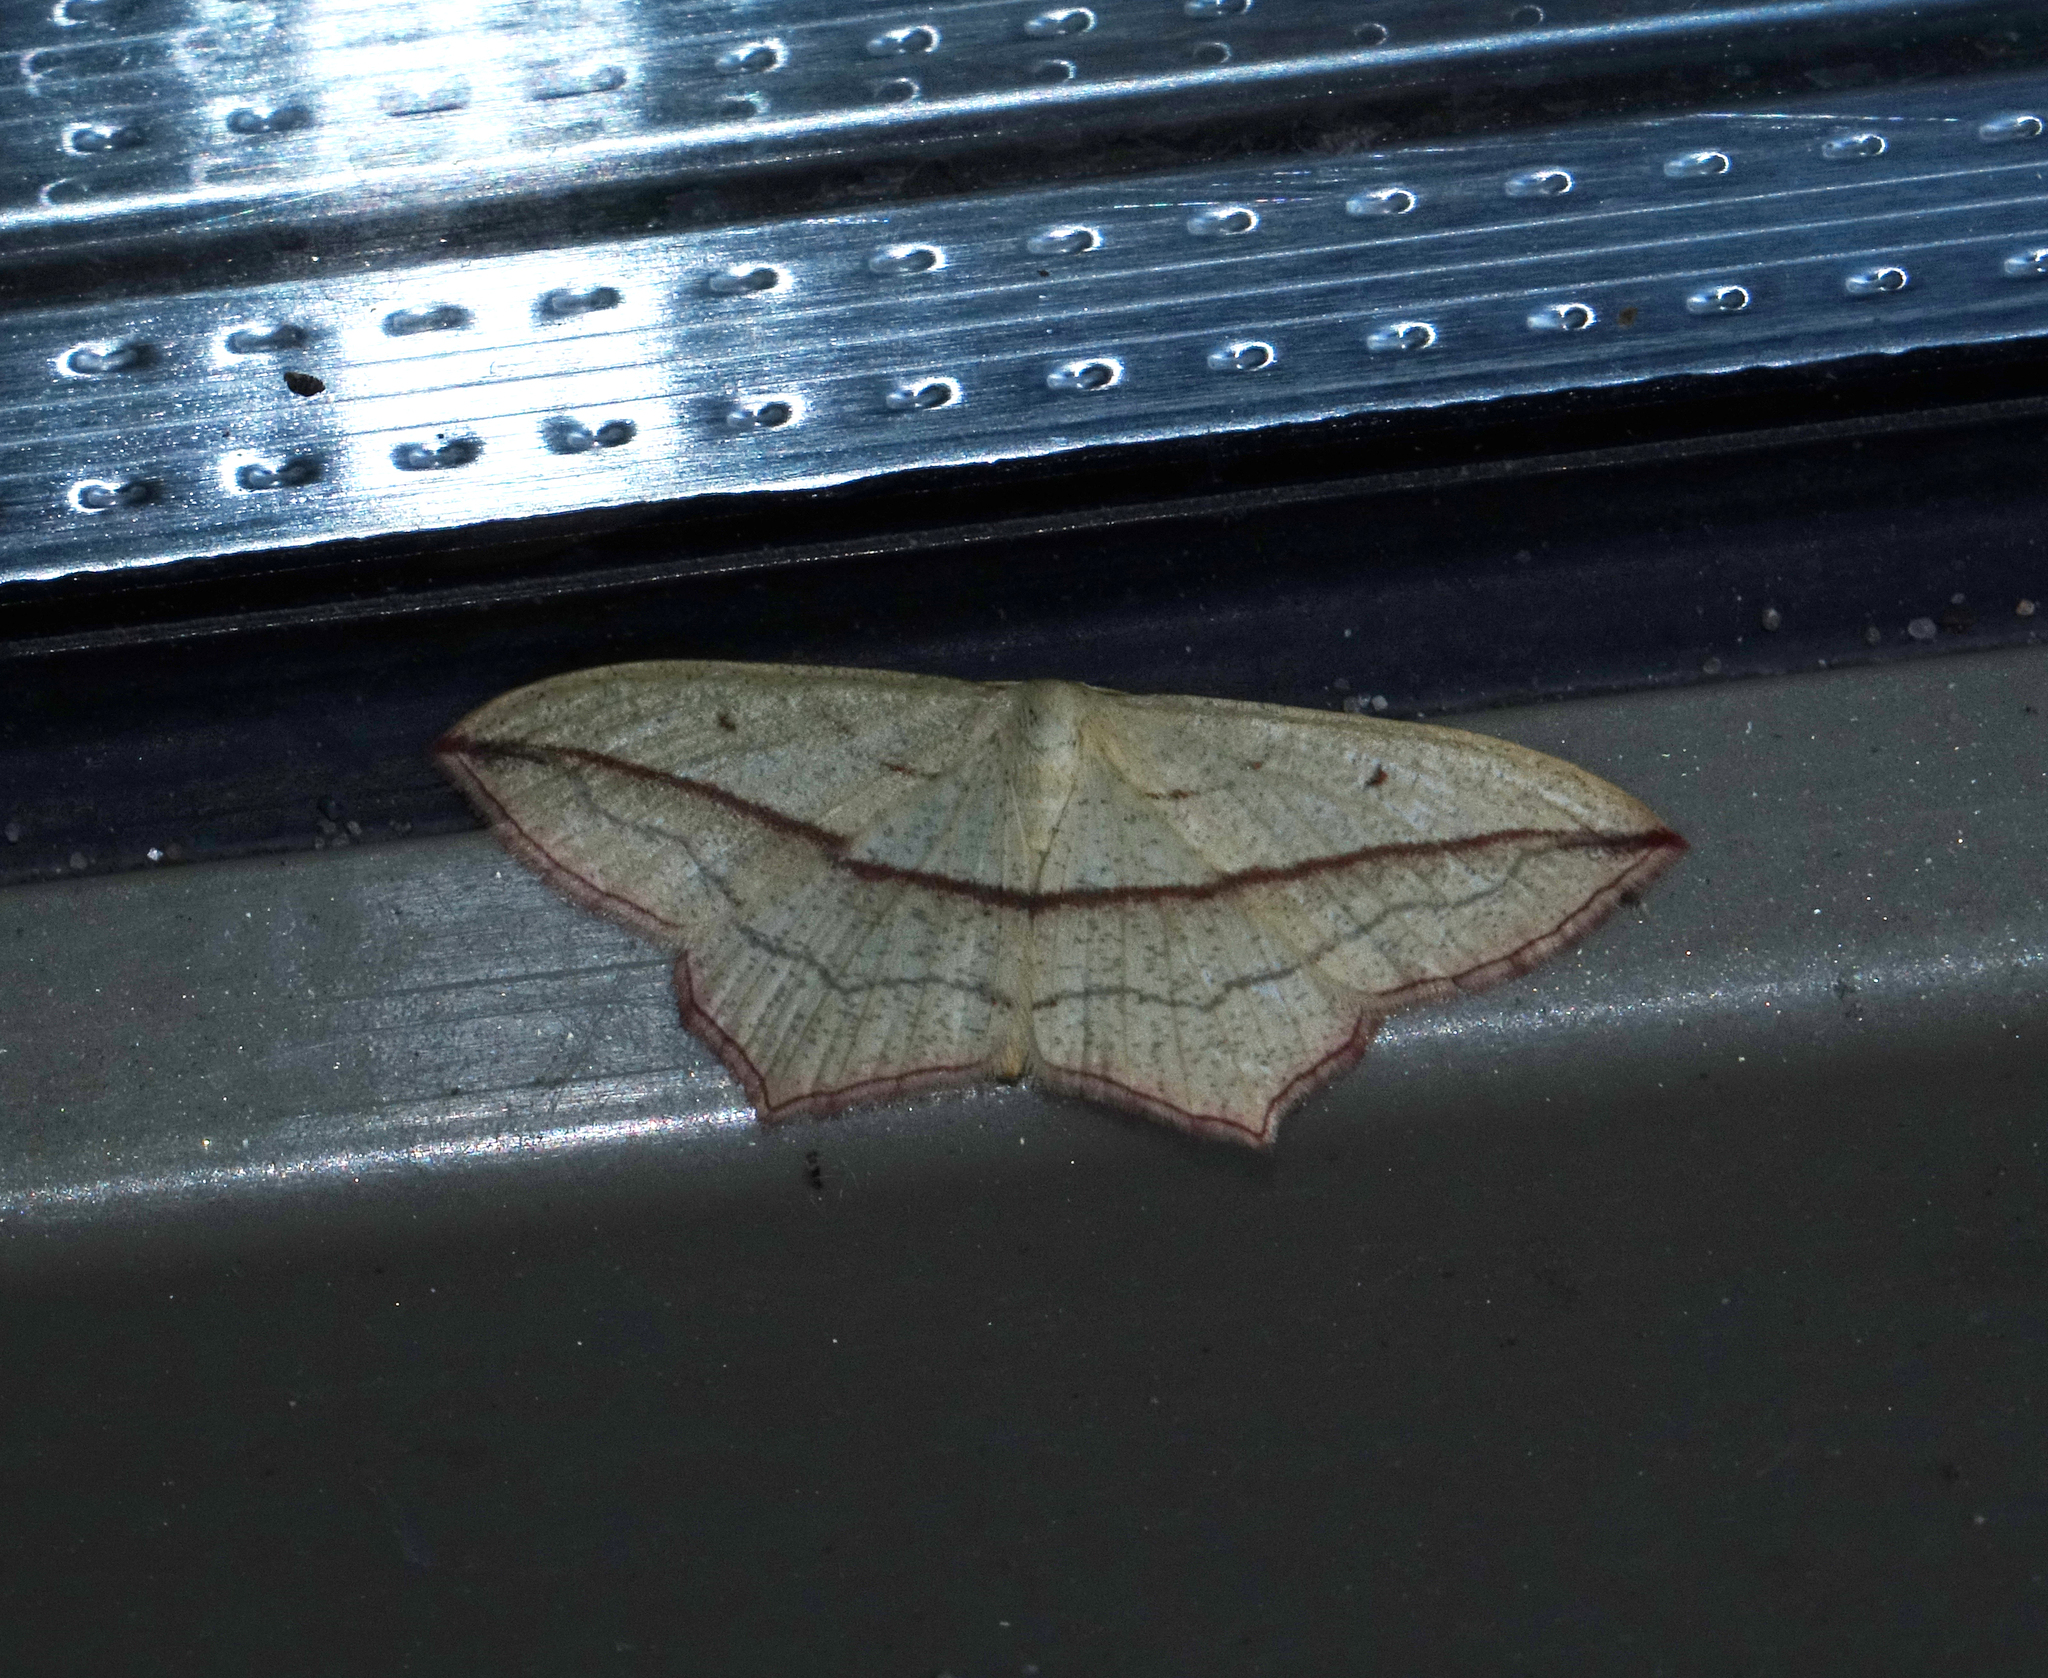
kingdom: Animalia
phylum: Arthropoda
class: Insecta
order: Lepidoptera
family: Geometridae
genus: Timandra
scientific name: Timandra comae
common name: Blood-vein
